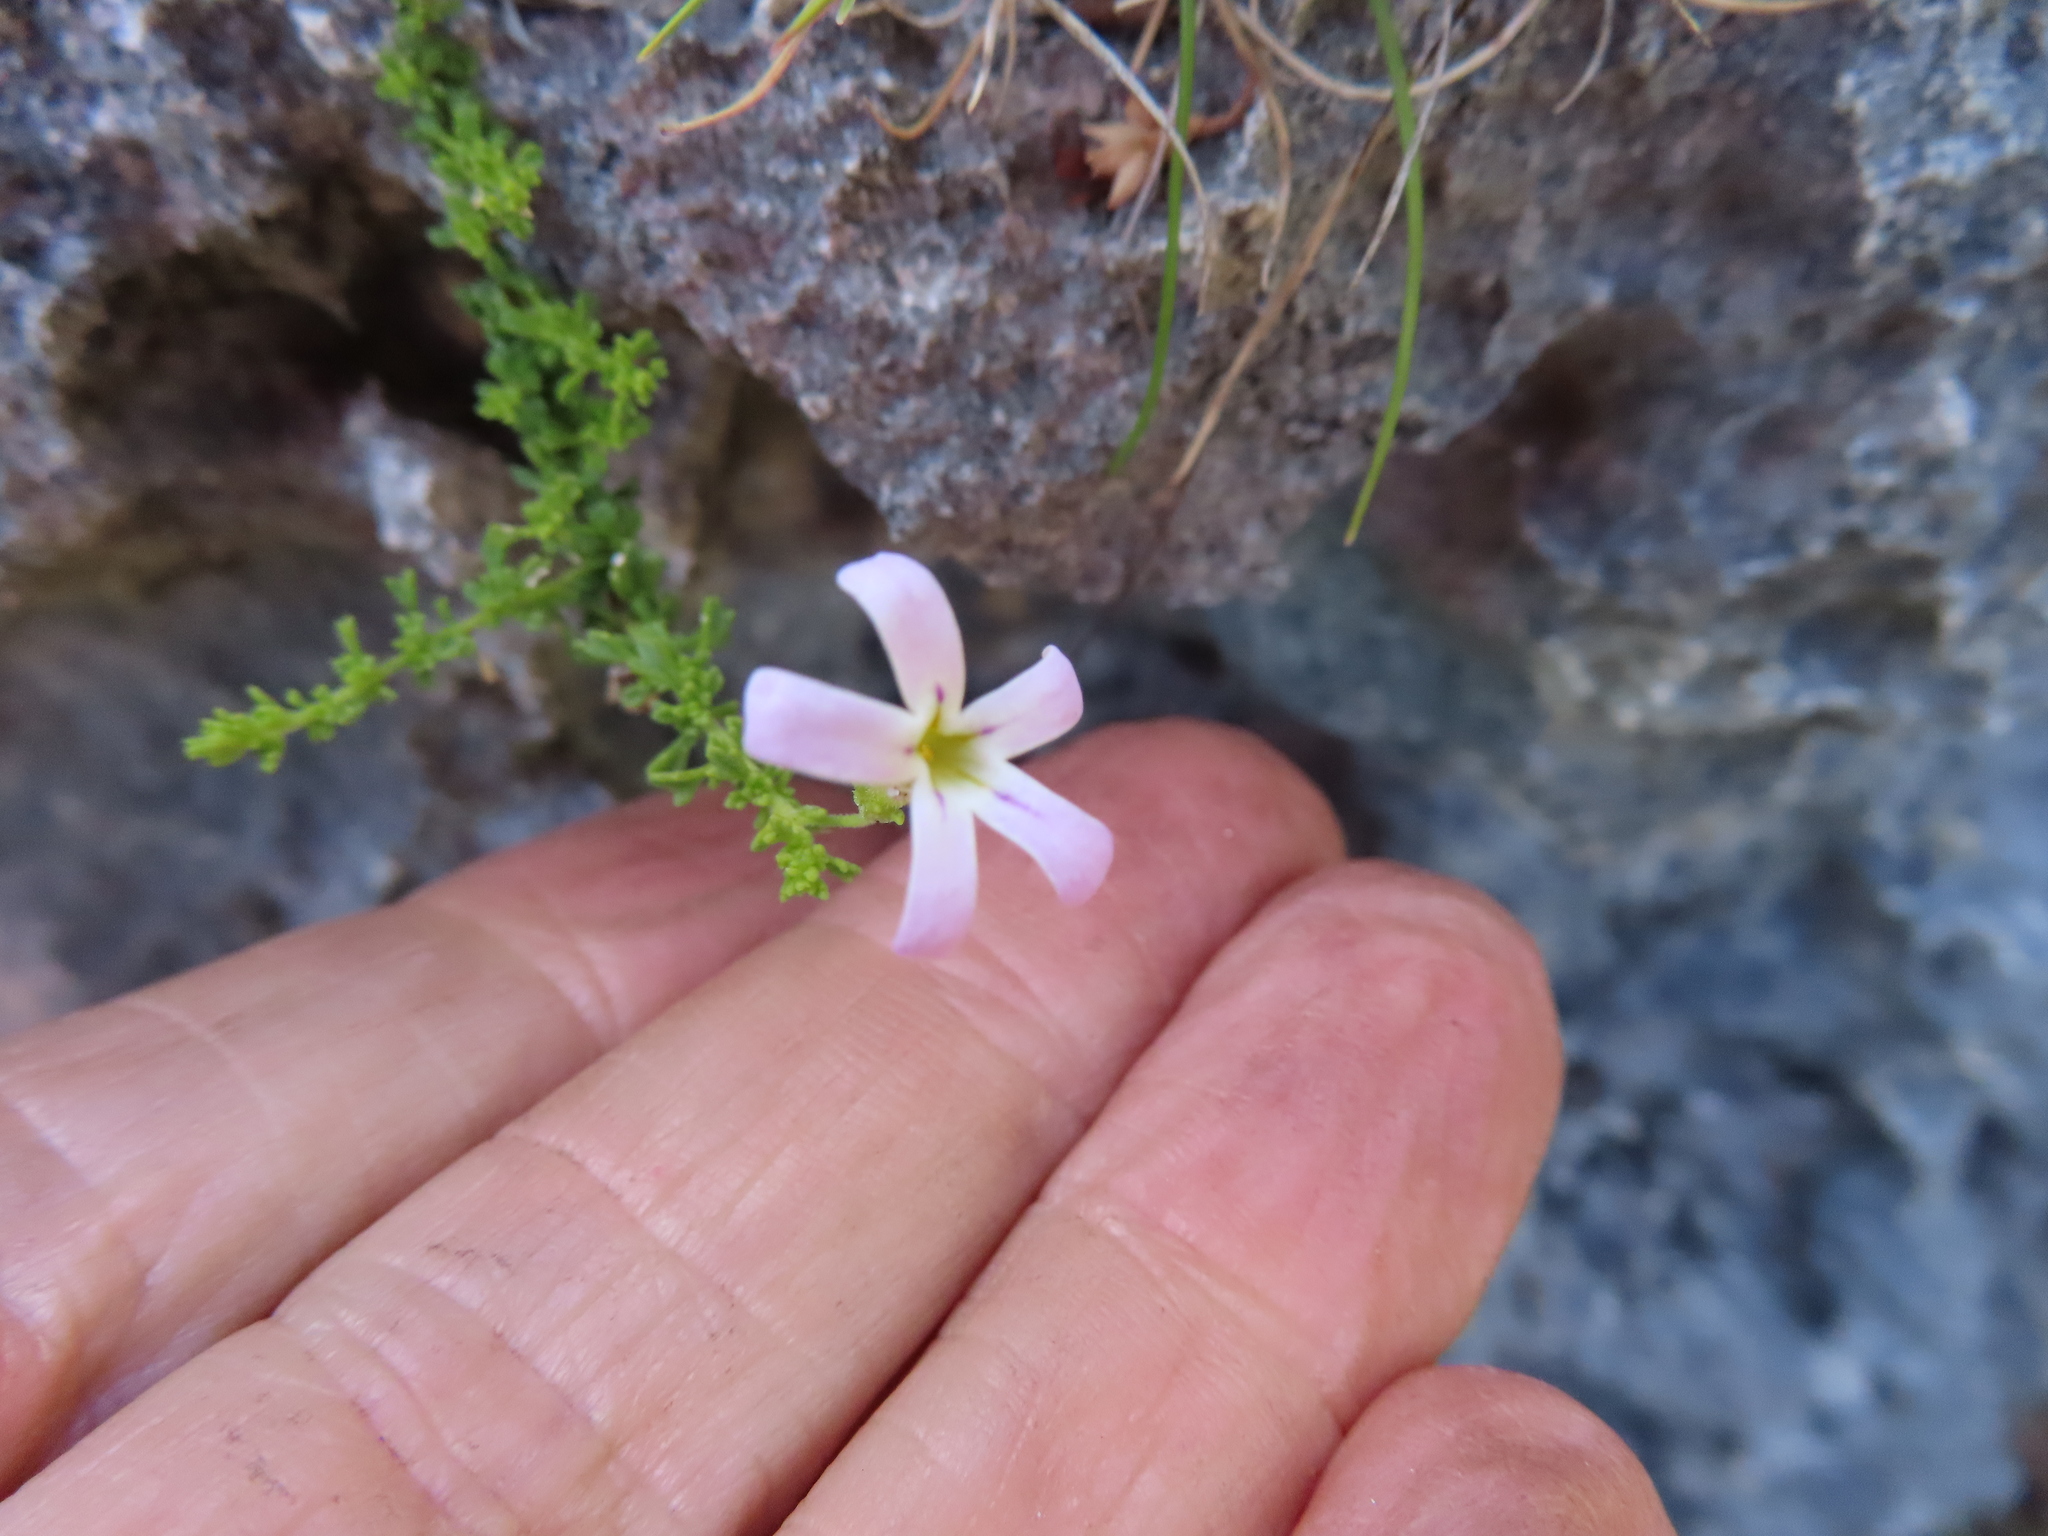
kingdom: Plantae
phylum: Tracheophyta
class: Magnoliopsida
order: Lamiales
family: Scrophulariaceae
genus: Jamesbrittenia
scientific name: Jamesbrittenia calciphila
